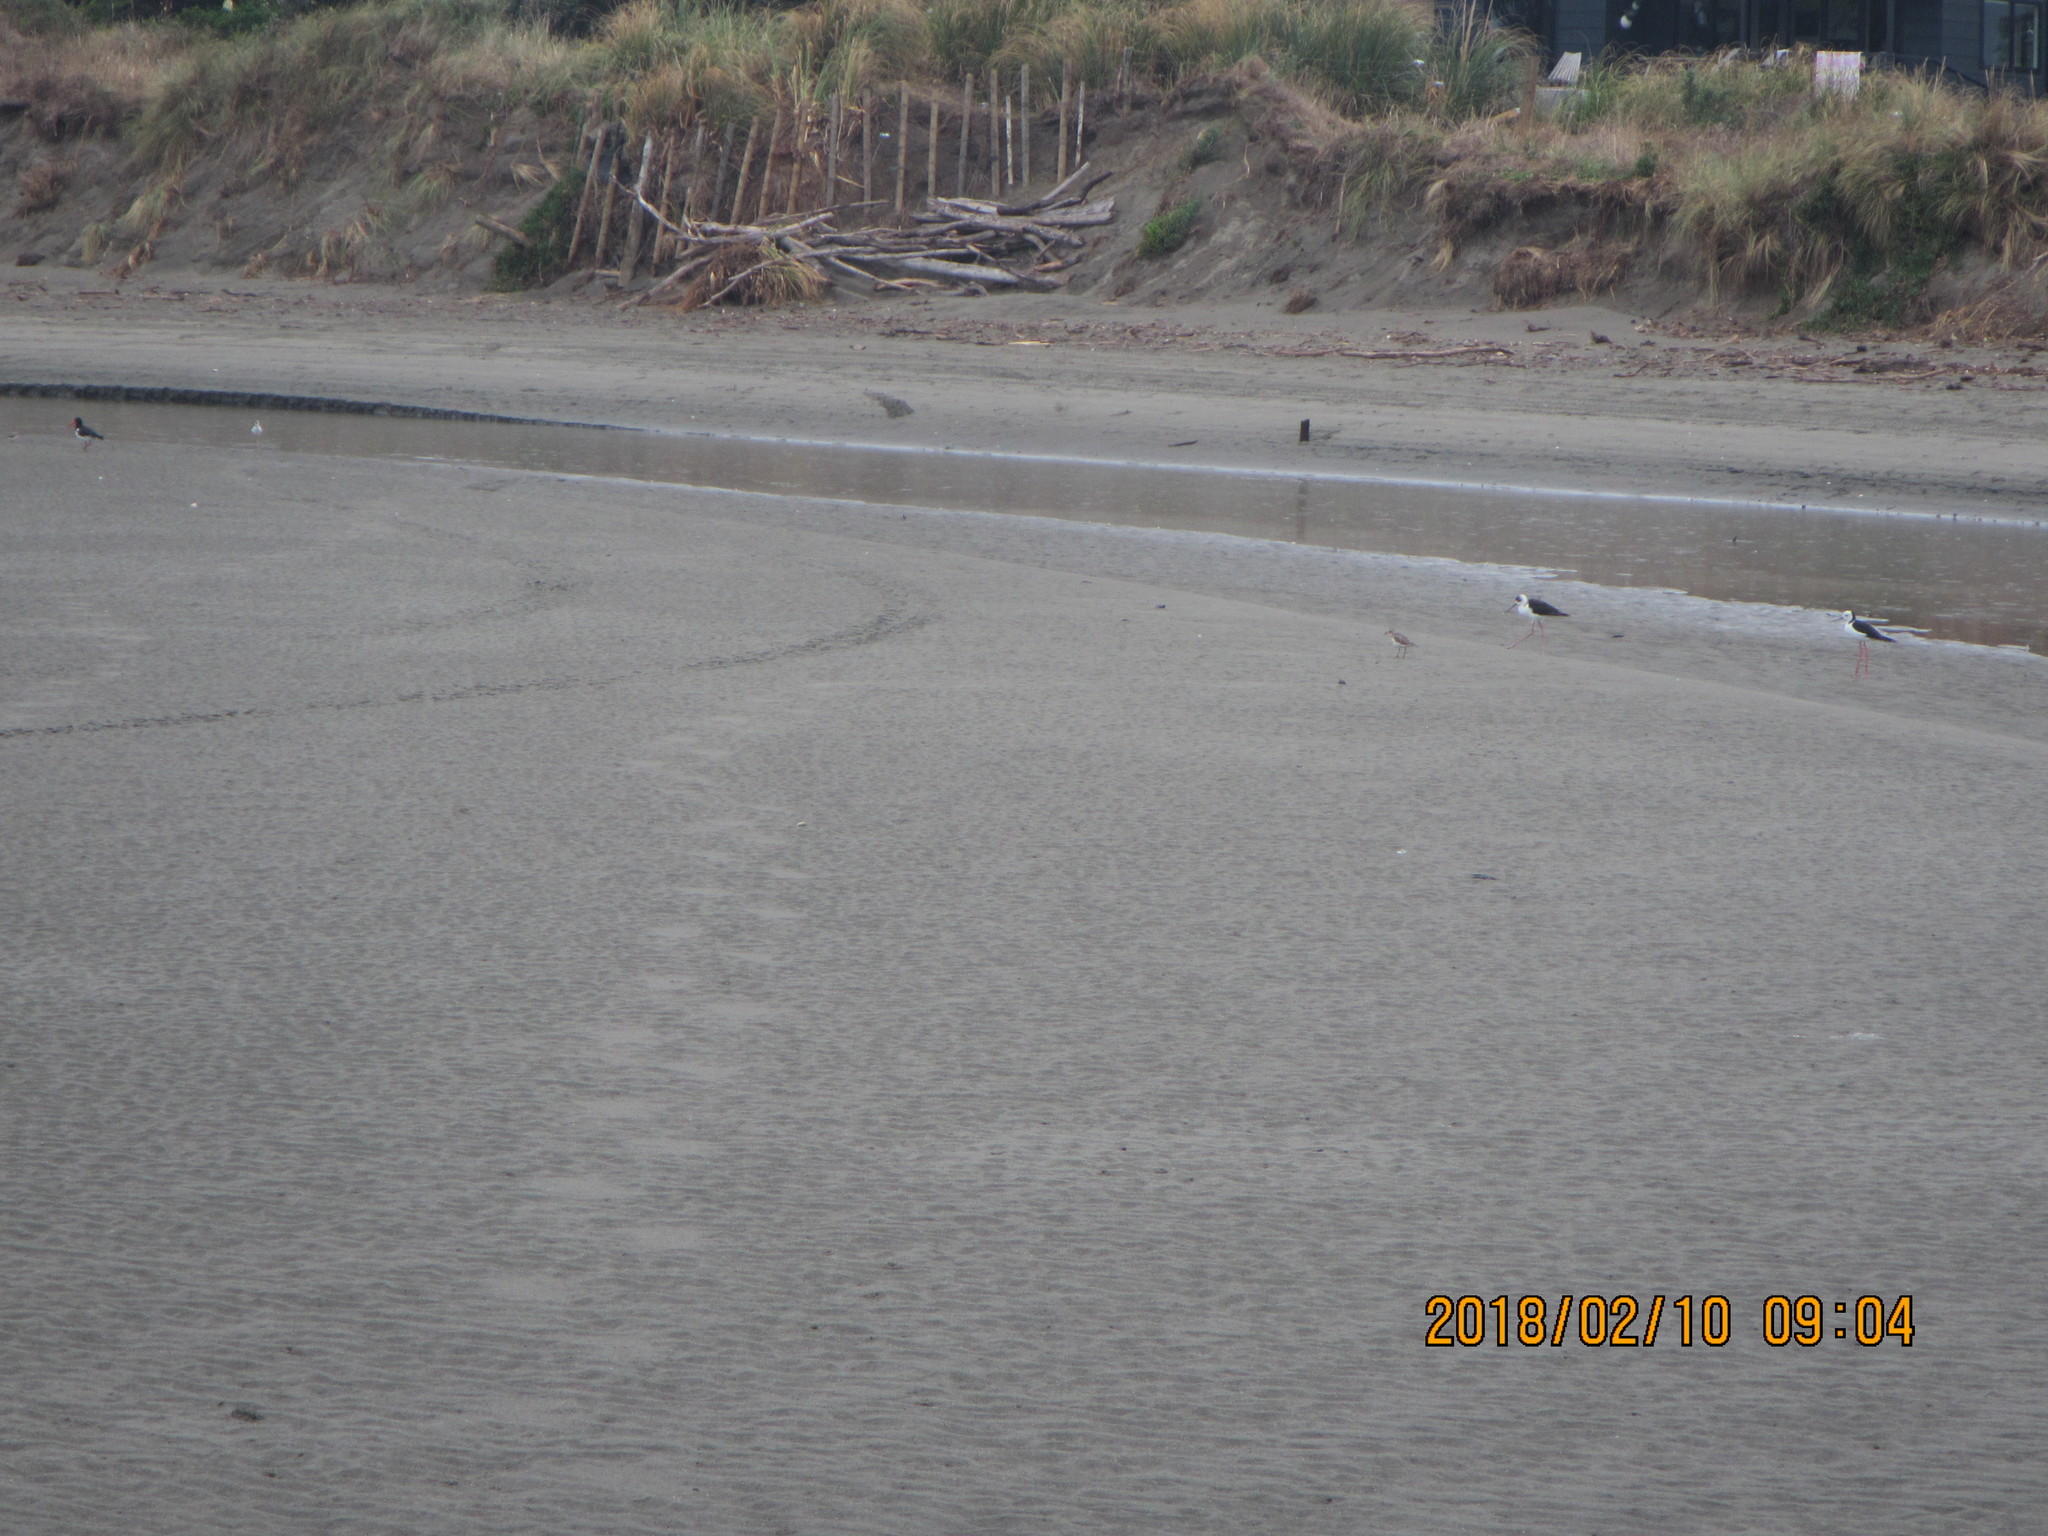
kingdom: Animalia
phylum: Chordata
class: Aves
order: Charadriiformes
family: Recurvirostridae
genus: Himantopus
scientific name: Himantopus leucocephalus
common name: White-headed stilt
